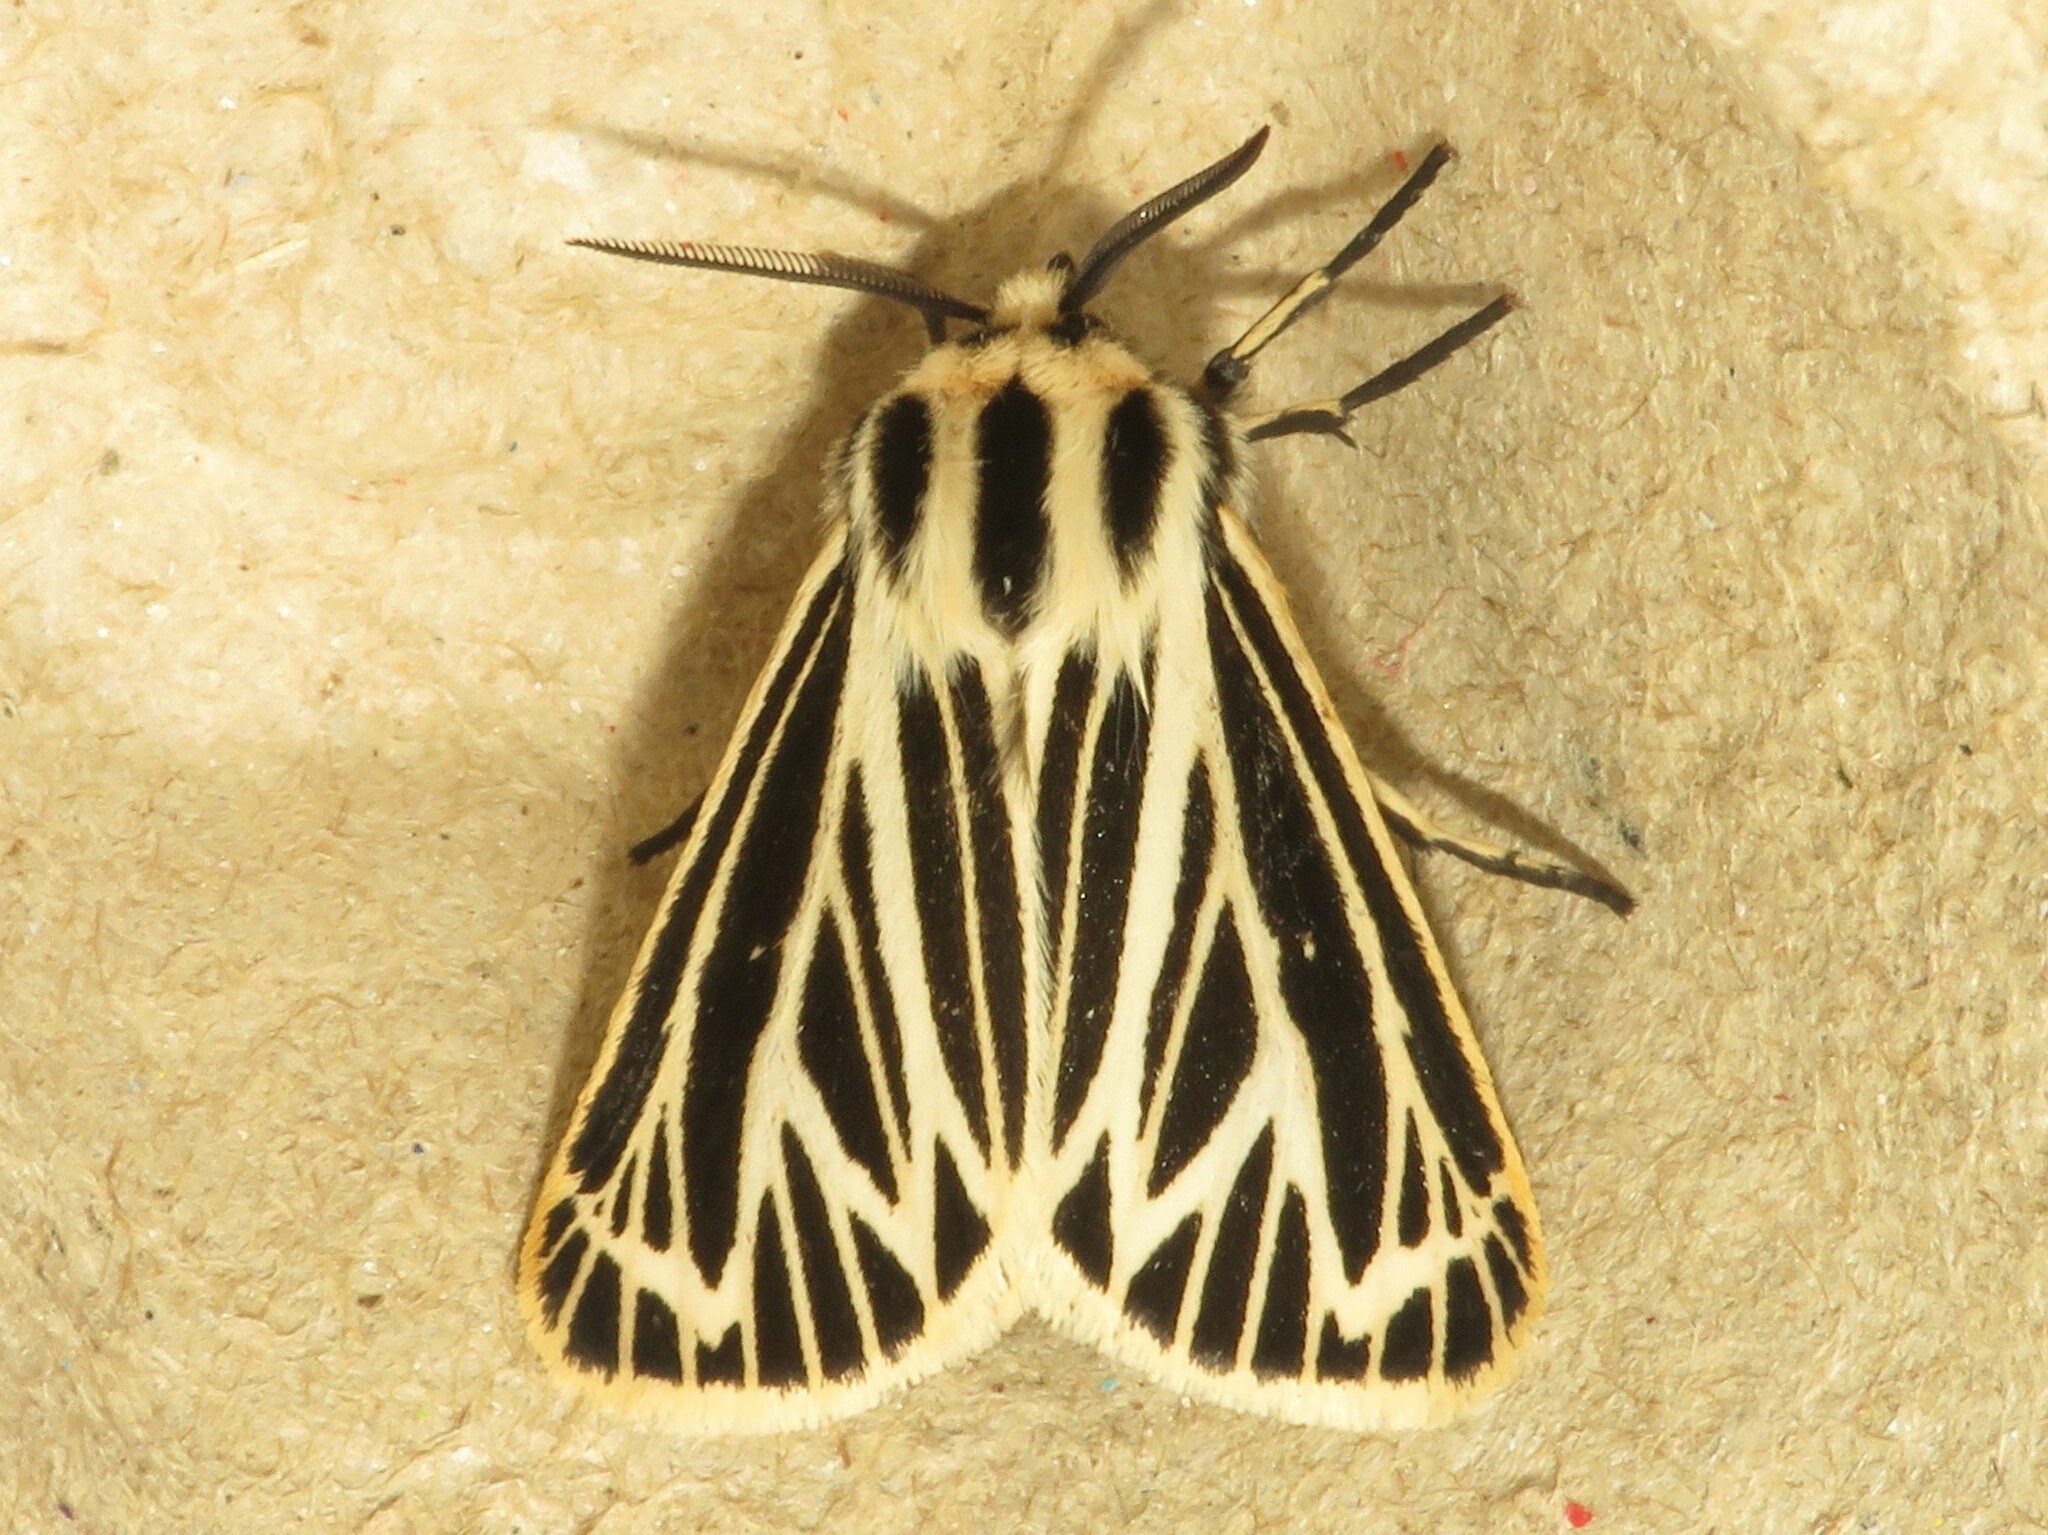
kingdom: Animalia
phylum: Arthropoda
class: Insecta
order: Lepidoptera
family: Erebidae
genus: Grammia
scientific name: Grammia virguncula
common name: Little tiger moth
